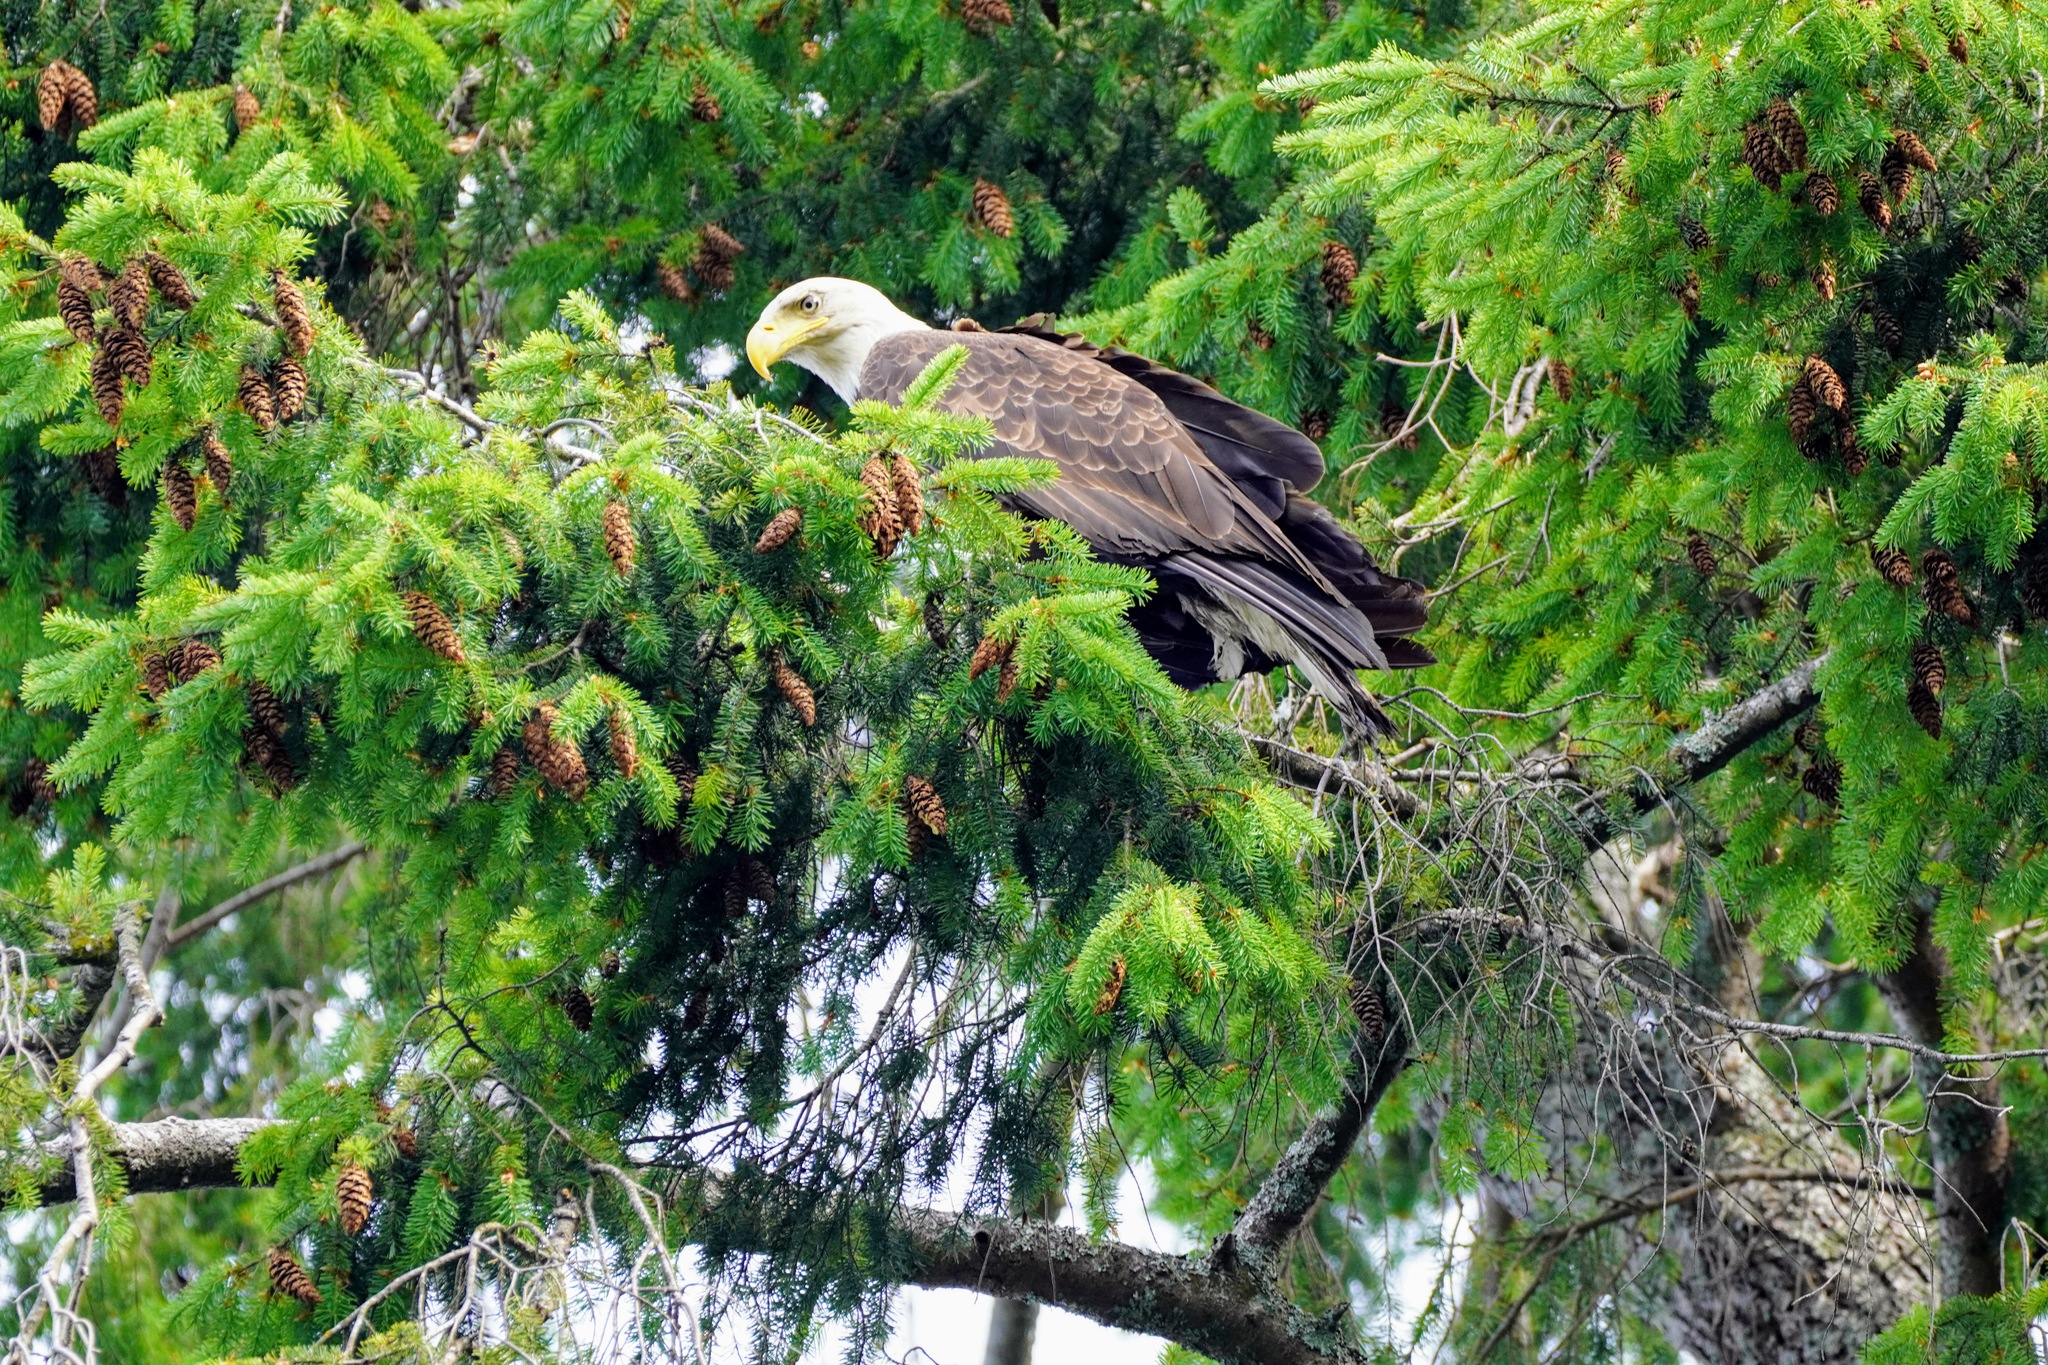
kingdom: Animalia
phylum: Chordata
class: Aves
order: Accipitriformes
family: Accipitridae
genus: Haliaeetus
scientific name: Haliaeetus leucocephalus
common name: Bald eagle
